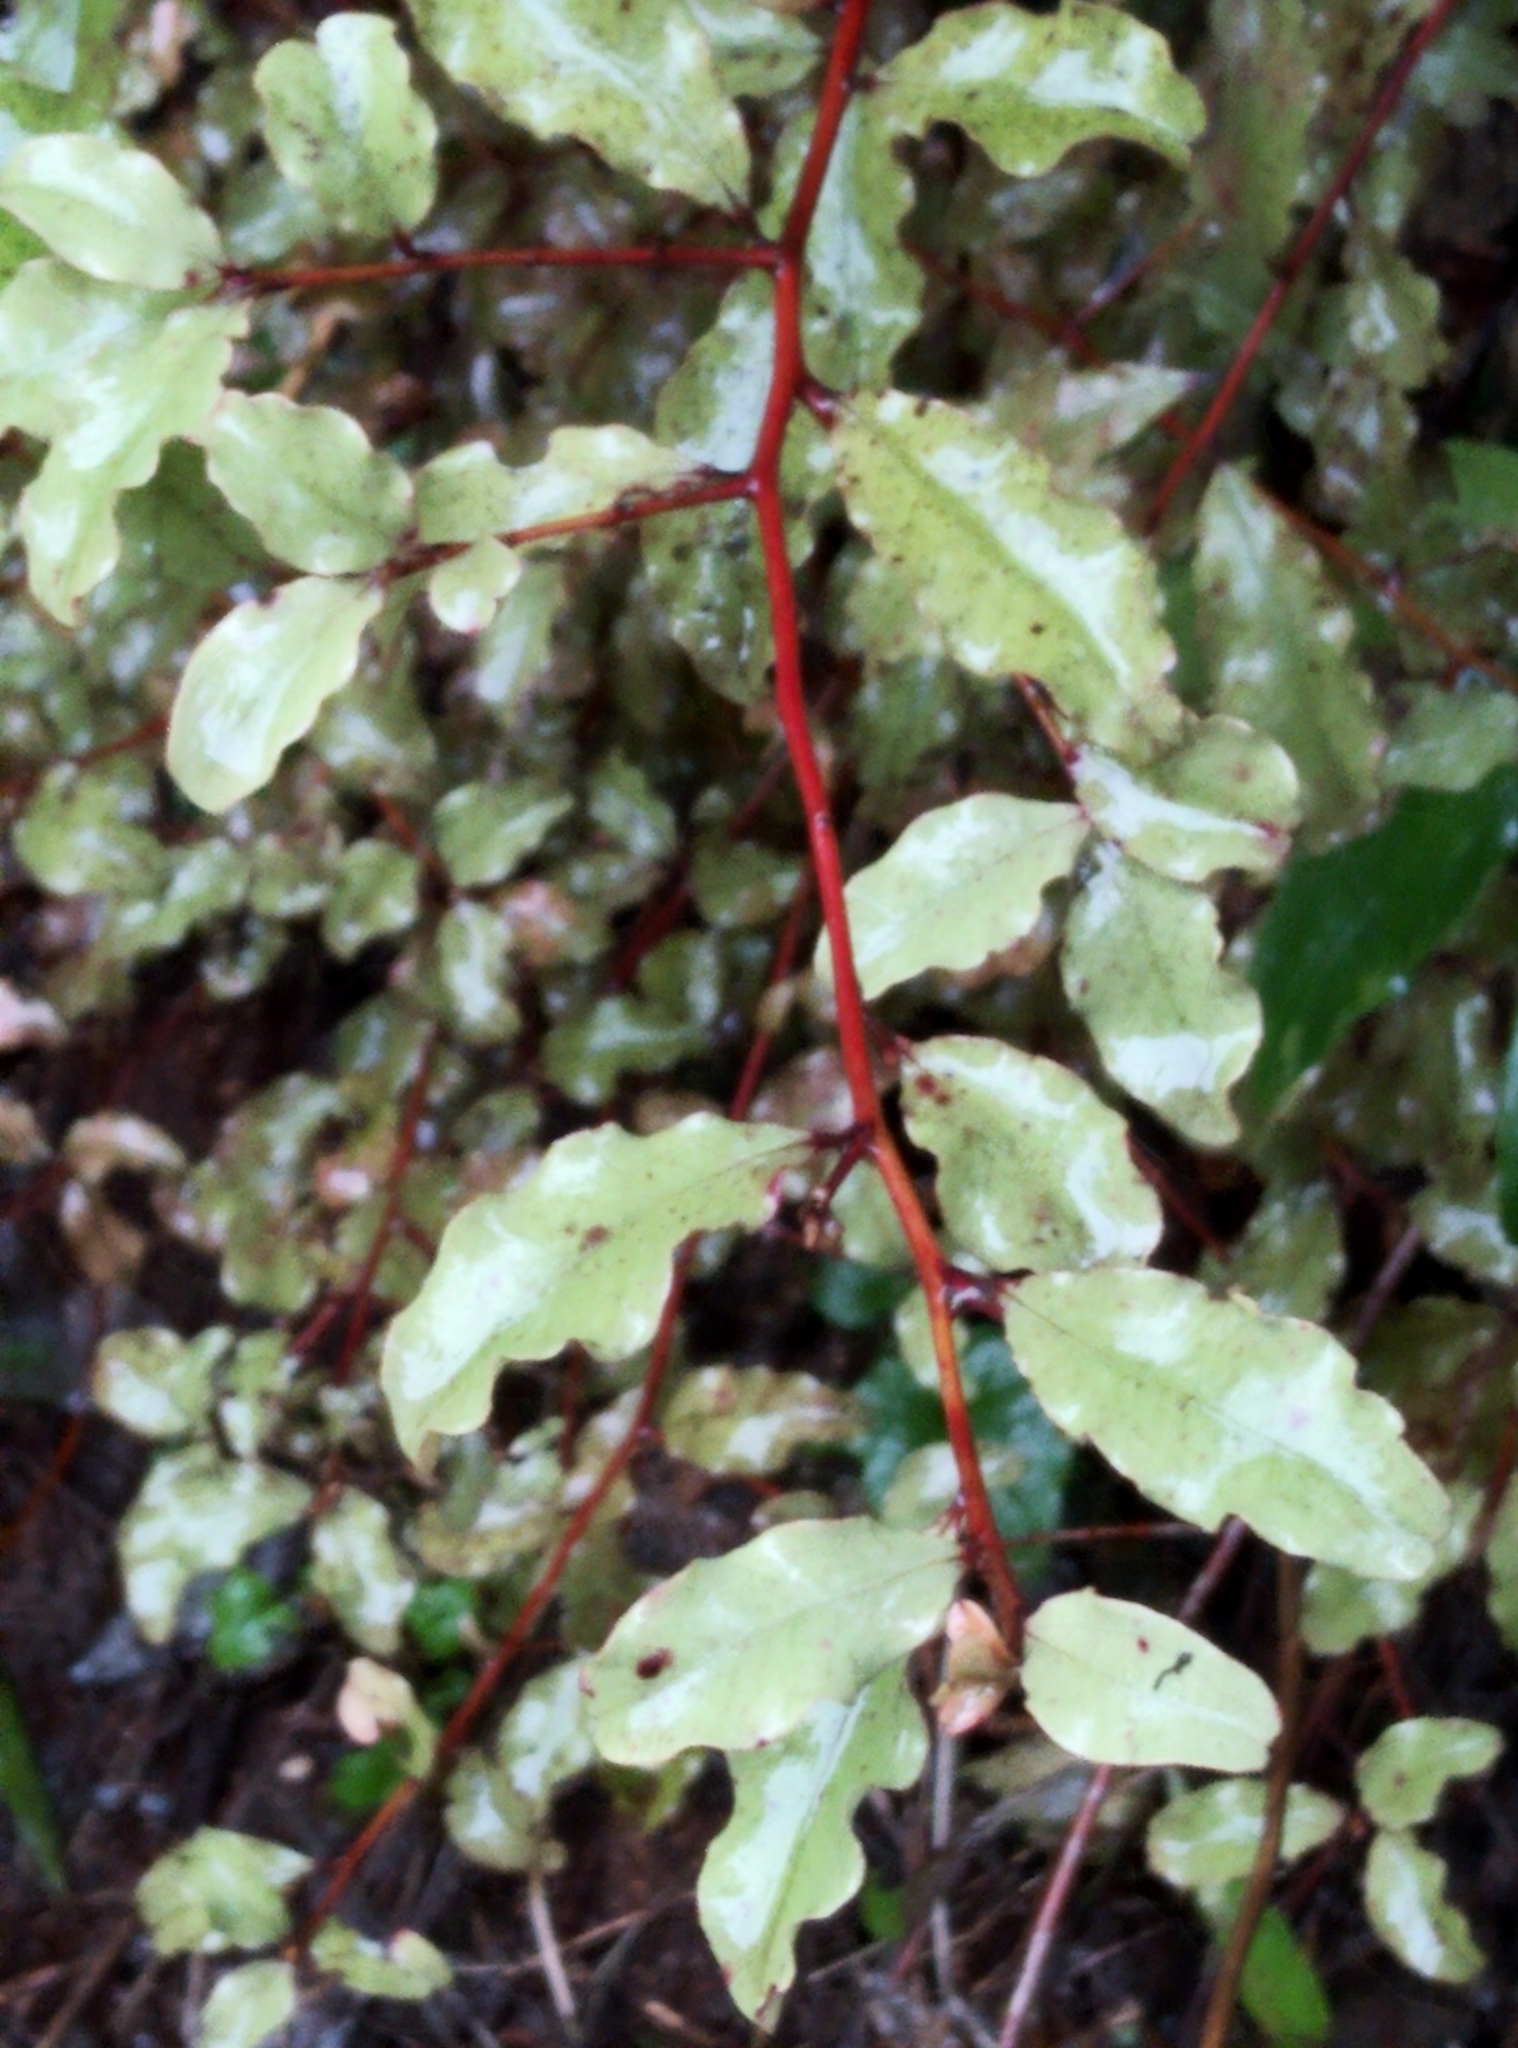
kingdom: Plantae
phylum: Tracheophyta
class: Magnoliopsida
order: Ericales
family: Primulaceae
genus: Myrsine
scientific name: Myrsine australis
